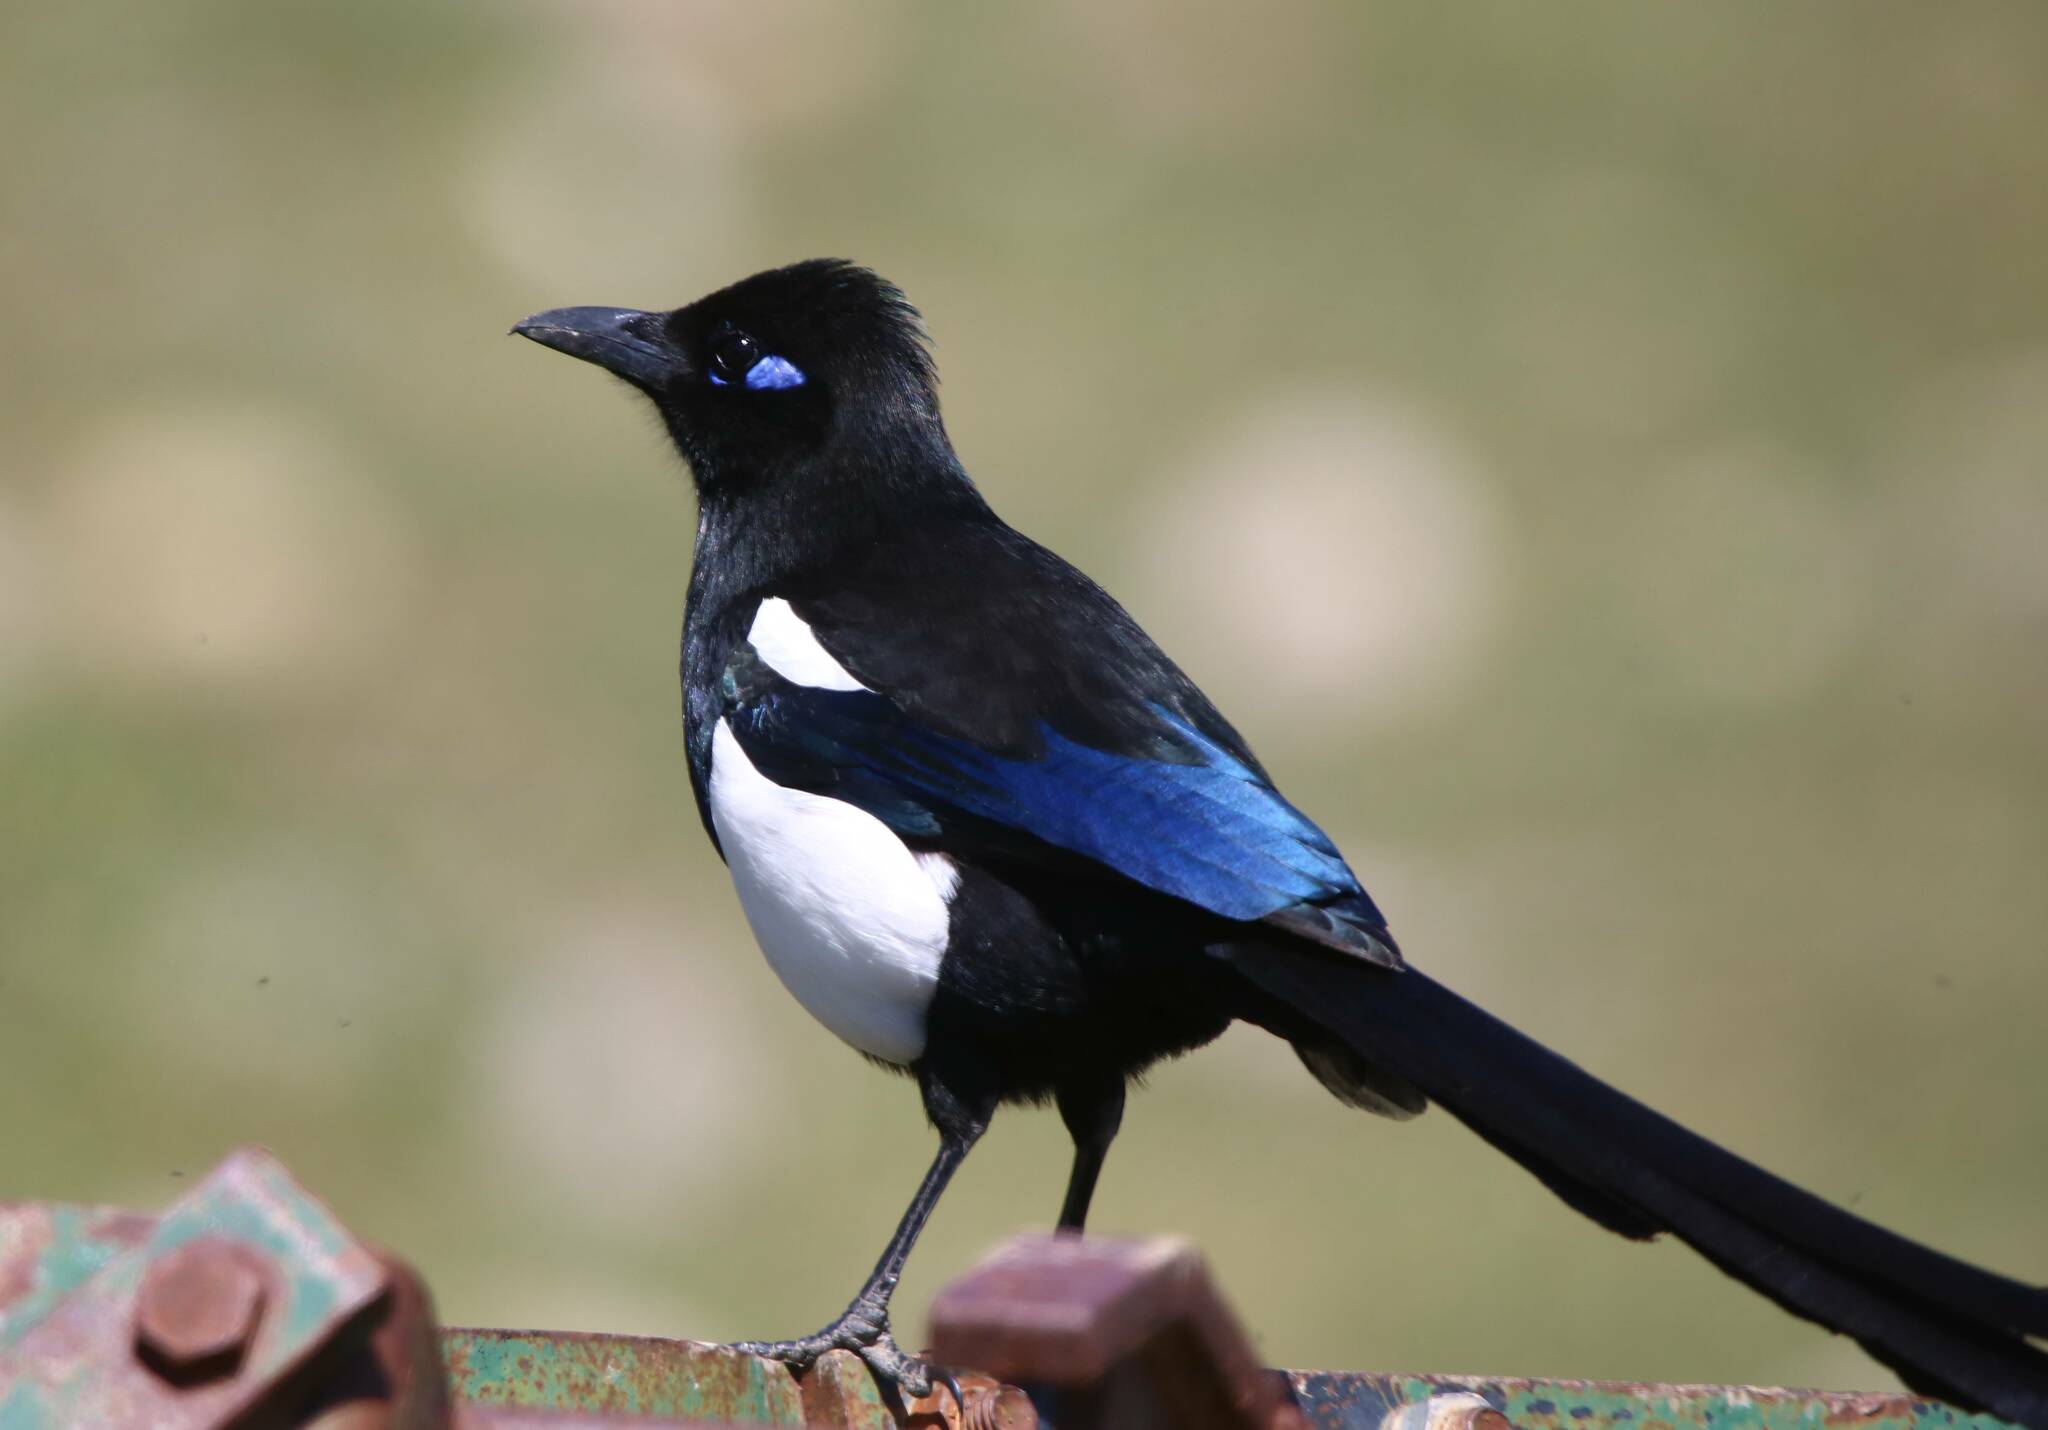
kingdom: Animalia
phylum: Chordata
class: Aves
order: Passeriformes
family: Corvidae
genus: Pica
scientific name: Pica mauritanica
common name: Maghreb magpie
